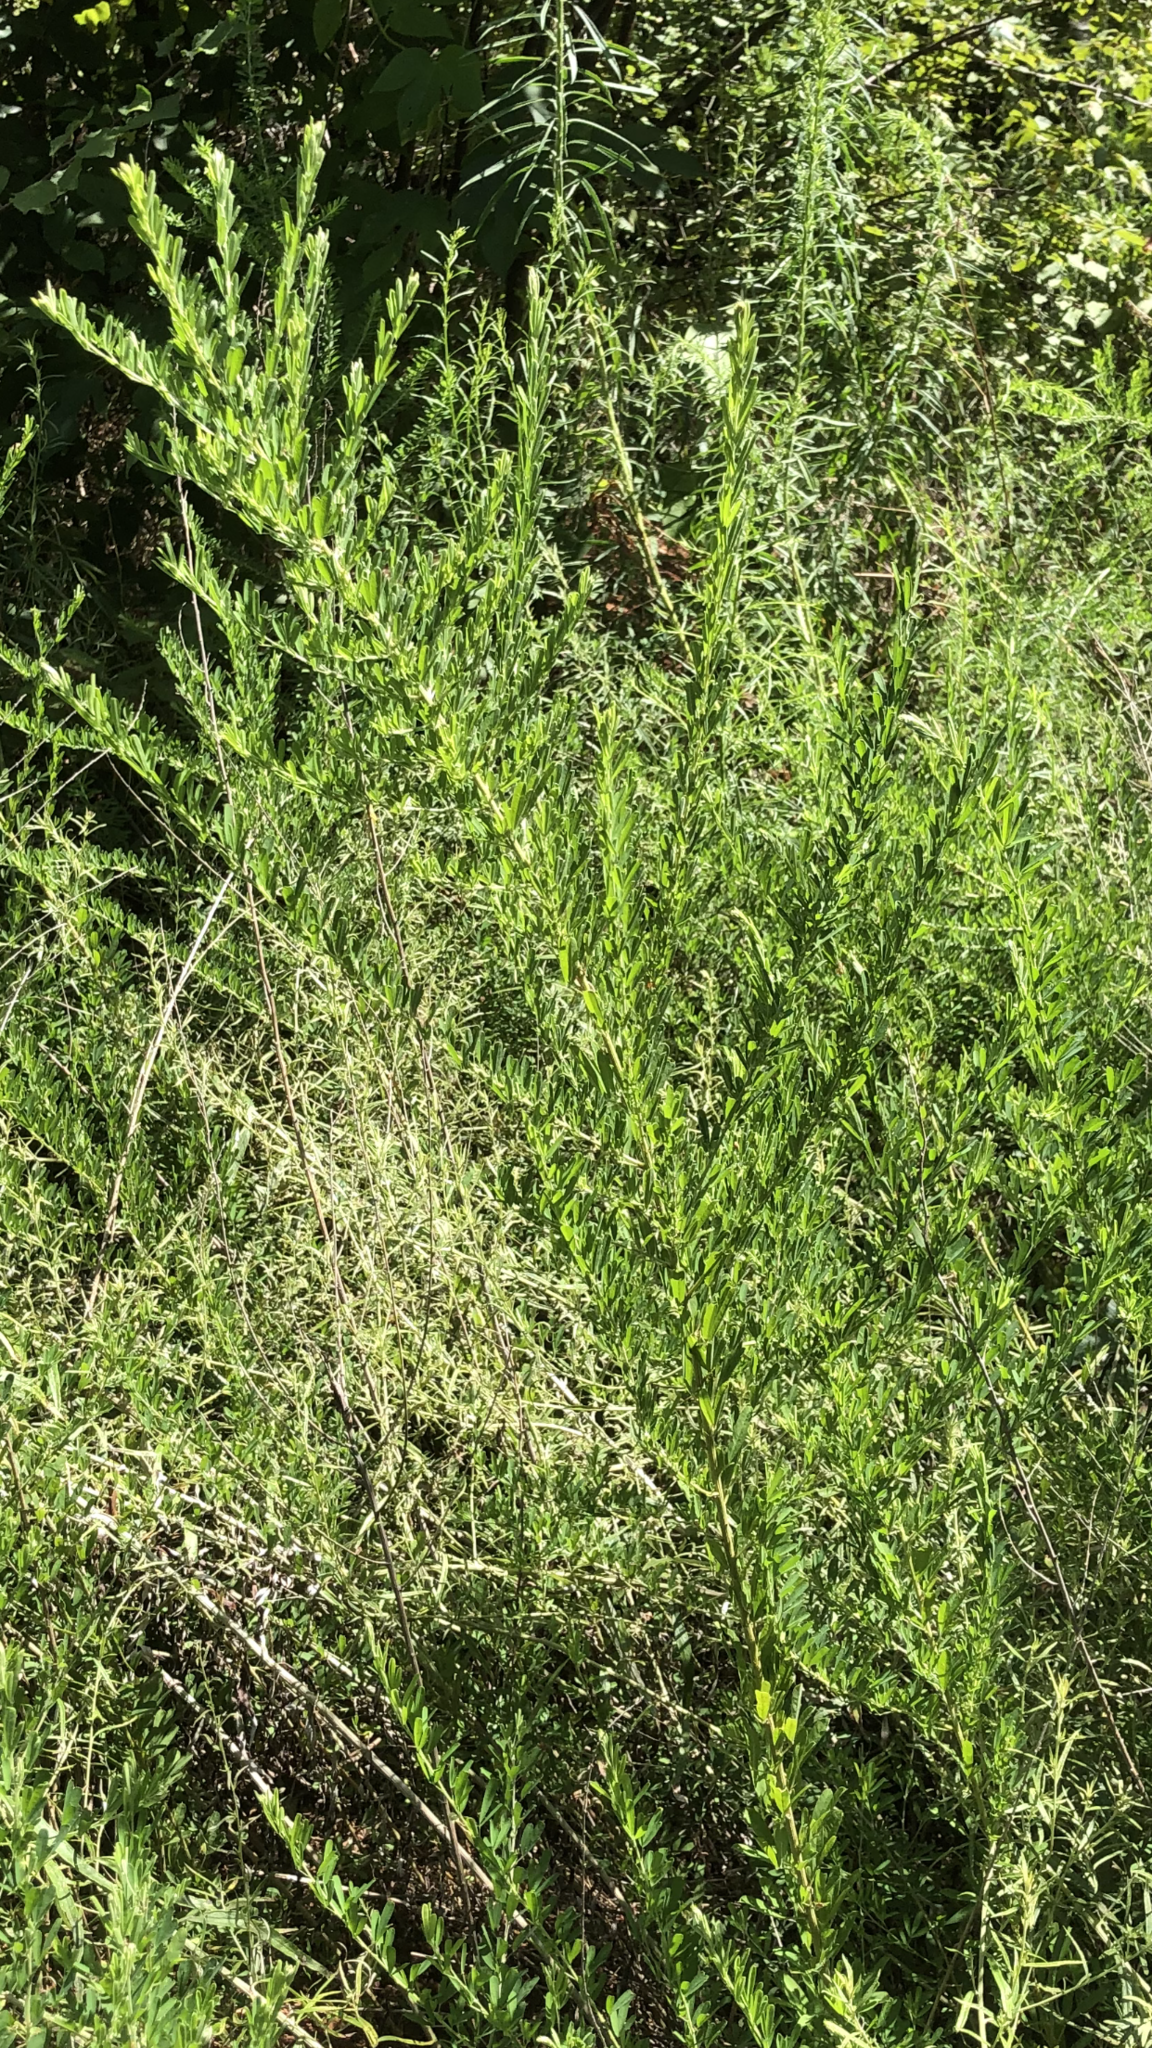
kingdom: Plantae
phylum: Tracheophyta
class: Magnoliopsida
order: Fabales
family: Fabaceae
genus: Lespedeza
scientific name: Lespedeza cuneata
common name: Chinese bush-clover
